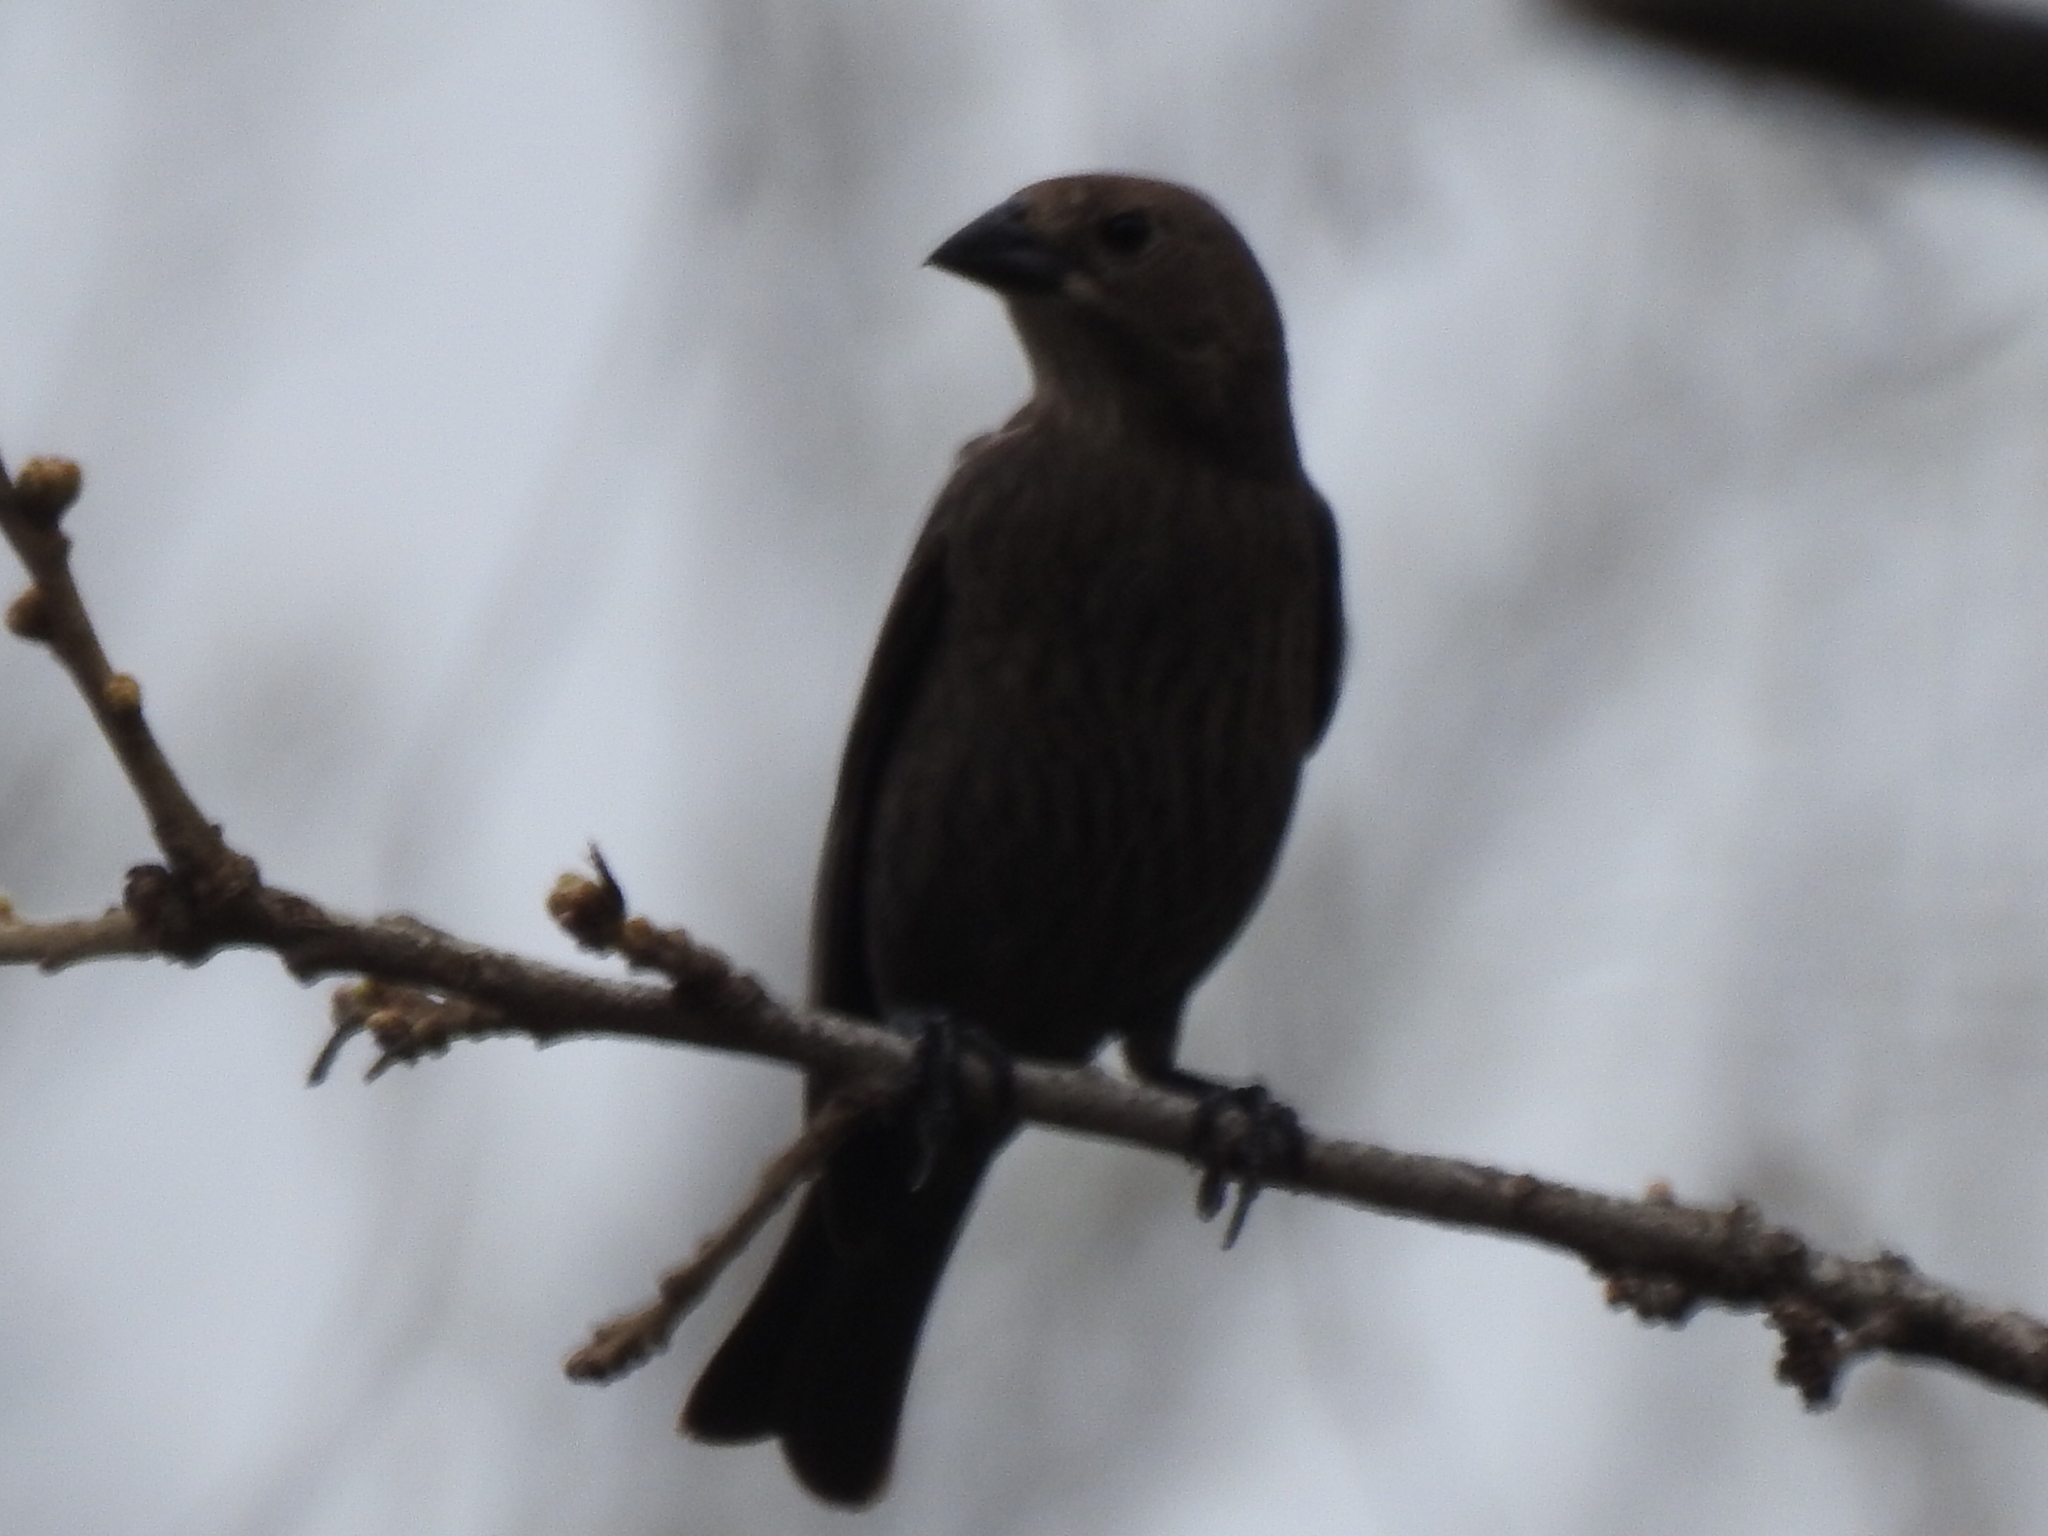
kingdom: Animalia
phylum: Chordata
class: Aves
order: Passeriformes
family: Icteridae
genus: Molothrus
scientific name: Molothrus ater
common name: Brown-headed cowbird
